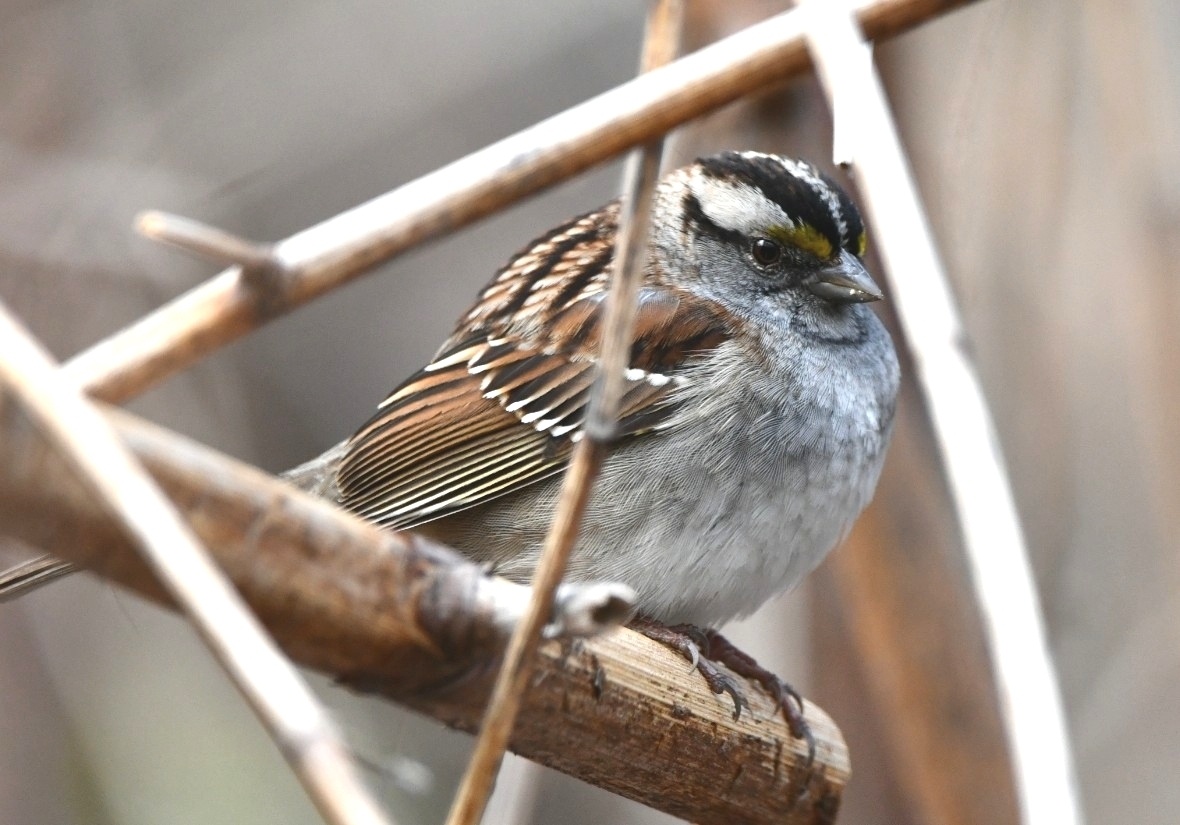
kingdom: Animalia
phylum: Chordata
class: Aves
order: Passeriformes
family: Passerellidae
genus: Zonotrichia
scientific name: Zonotrichia albicollis
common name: White-throated sparrow
